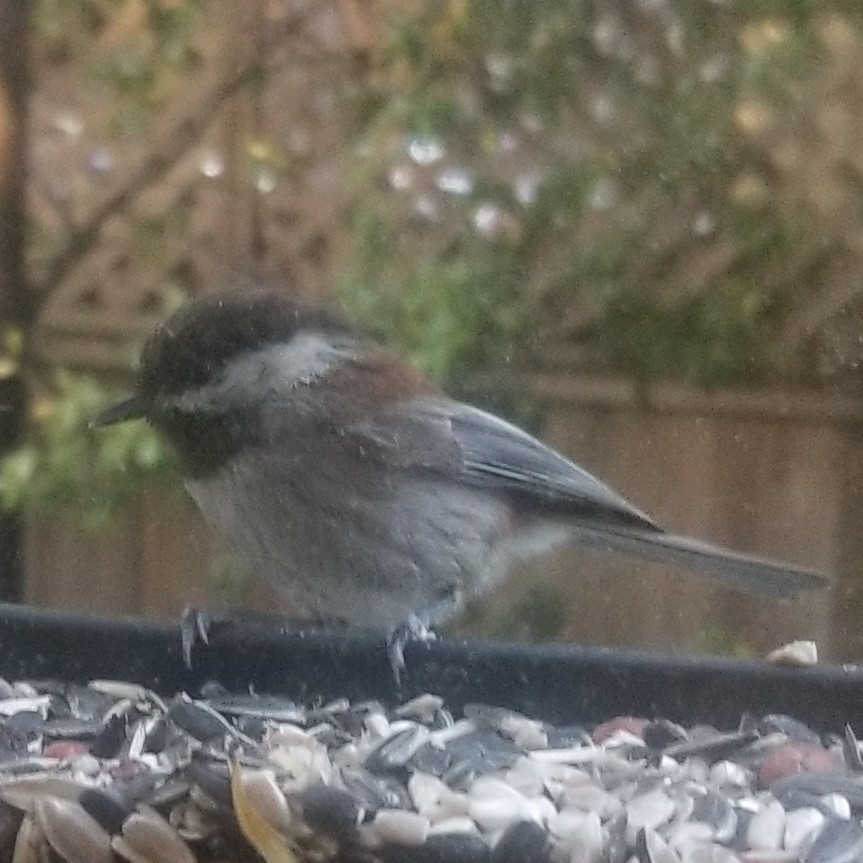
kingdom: Animalia
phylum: Chordata
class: Aves
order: Passeriformes
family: Paridae
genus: Poecile
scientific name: Poecile rufescens
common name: Chestnut-backed chickadee
